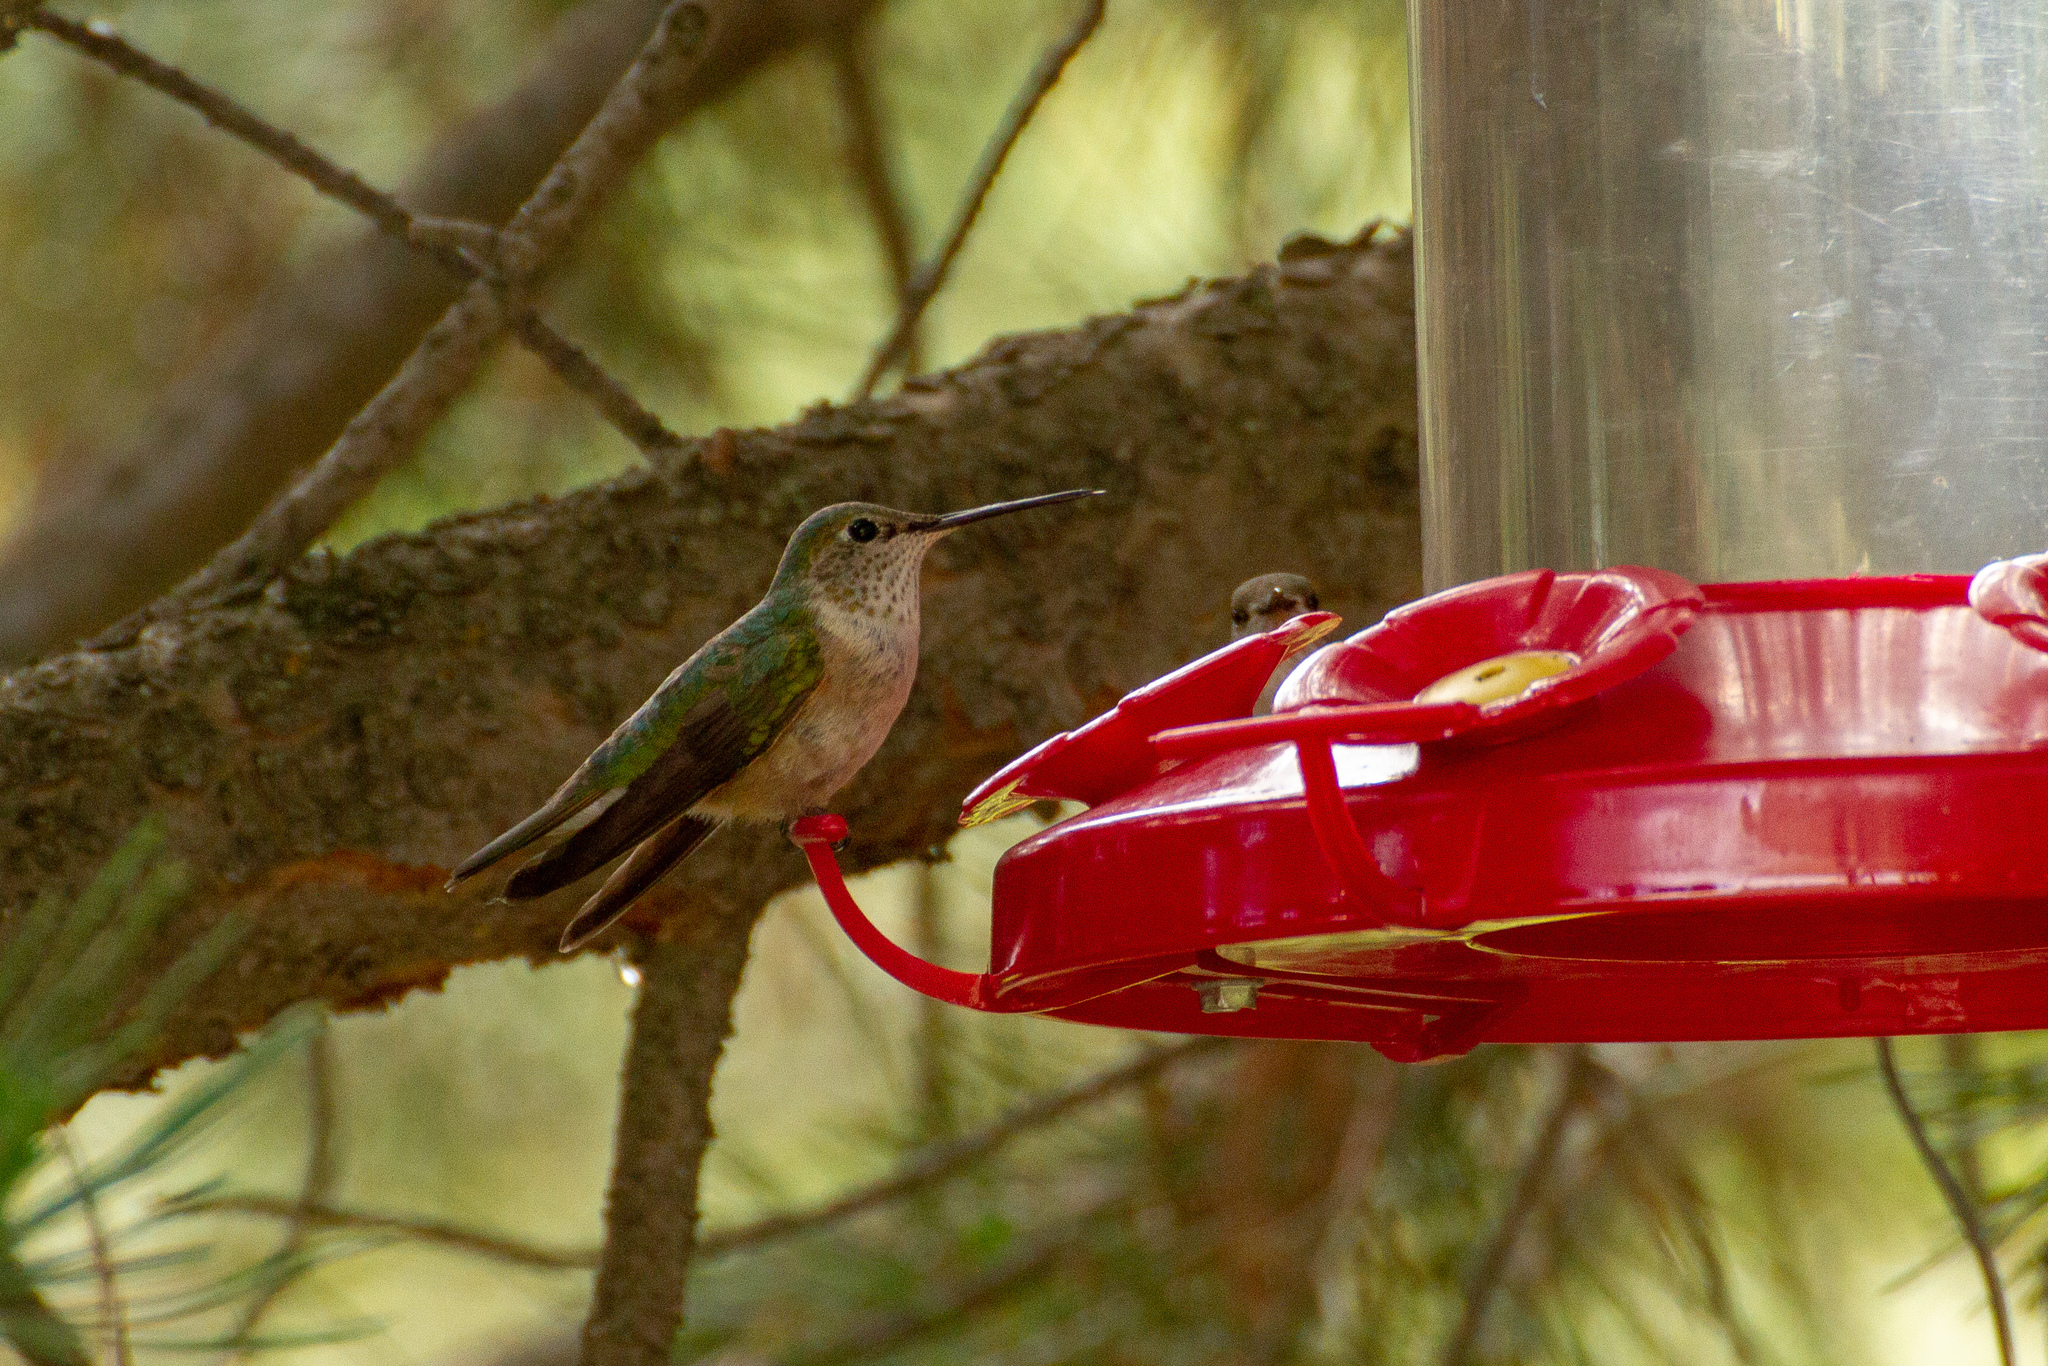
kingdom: Animalia
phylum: Chordata
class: Aves
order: Apodiformes
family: Trochilidae
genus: Selasphorus
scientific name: Selasphorus platycercus
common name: Broad-tailed hummingbird
